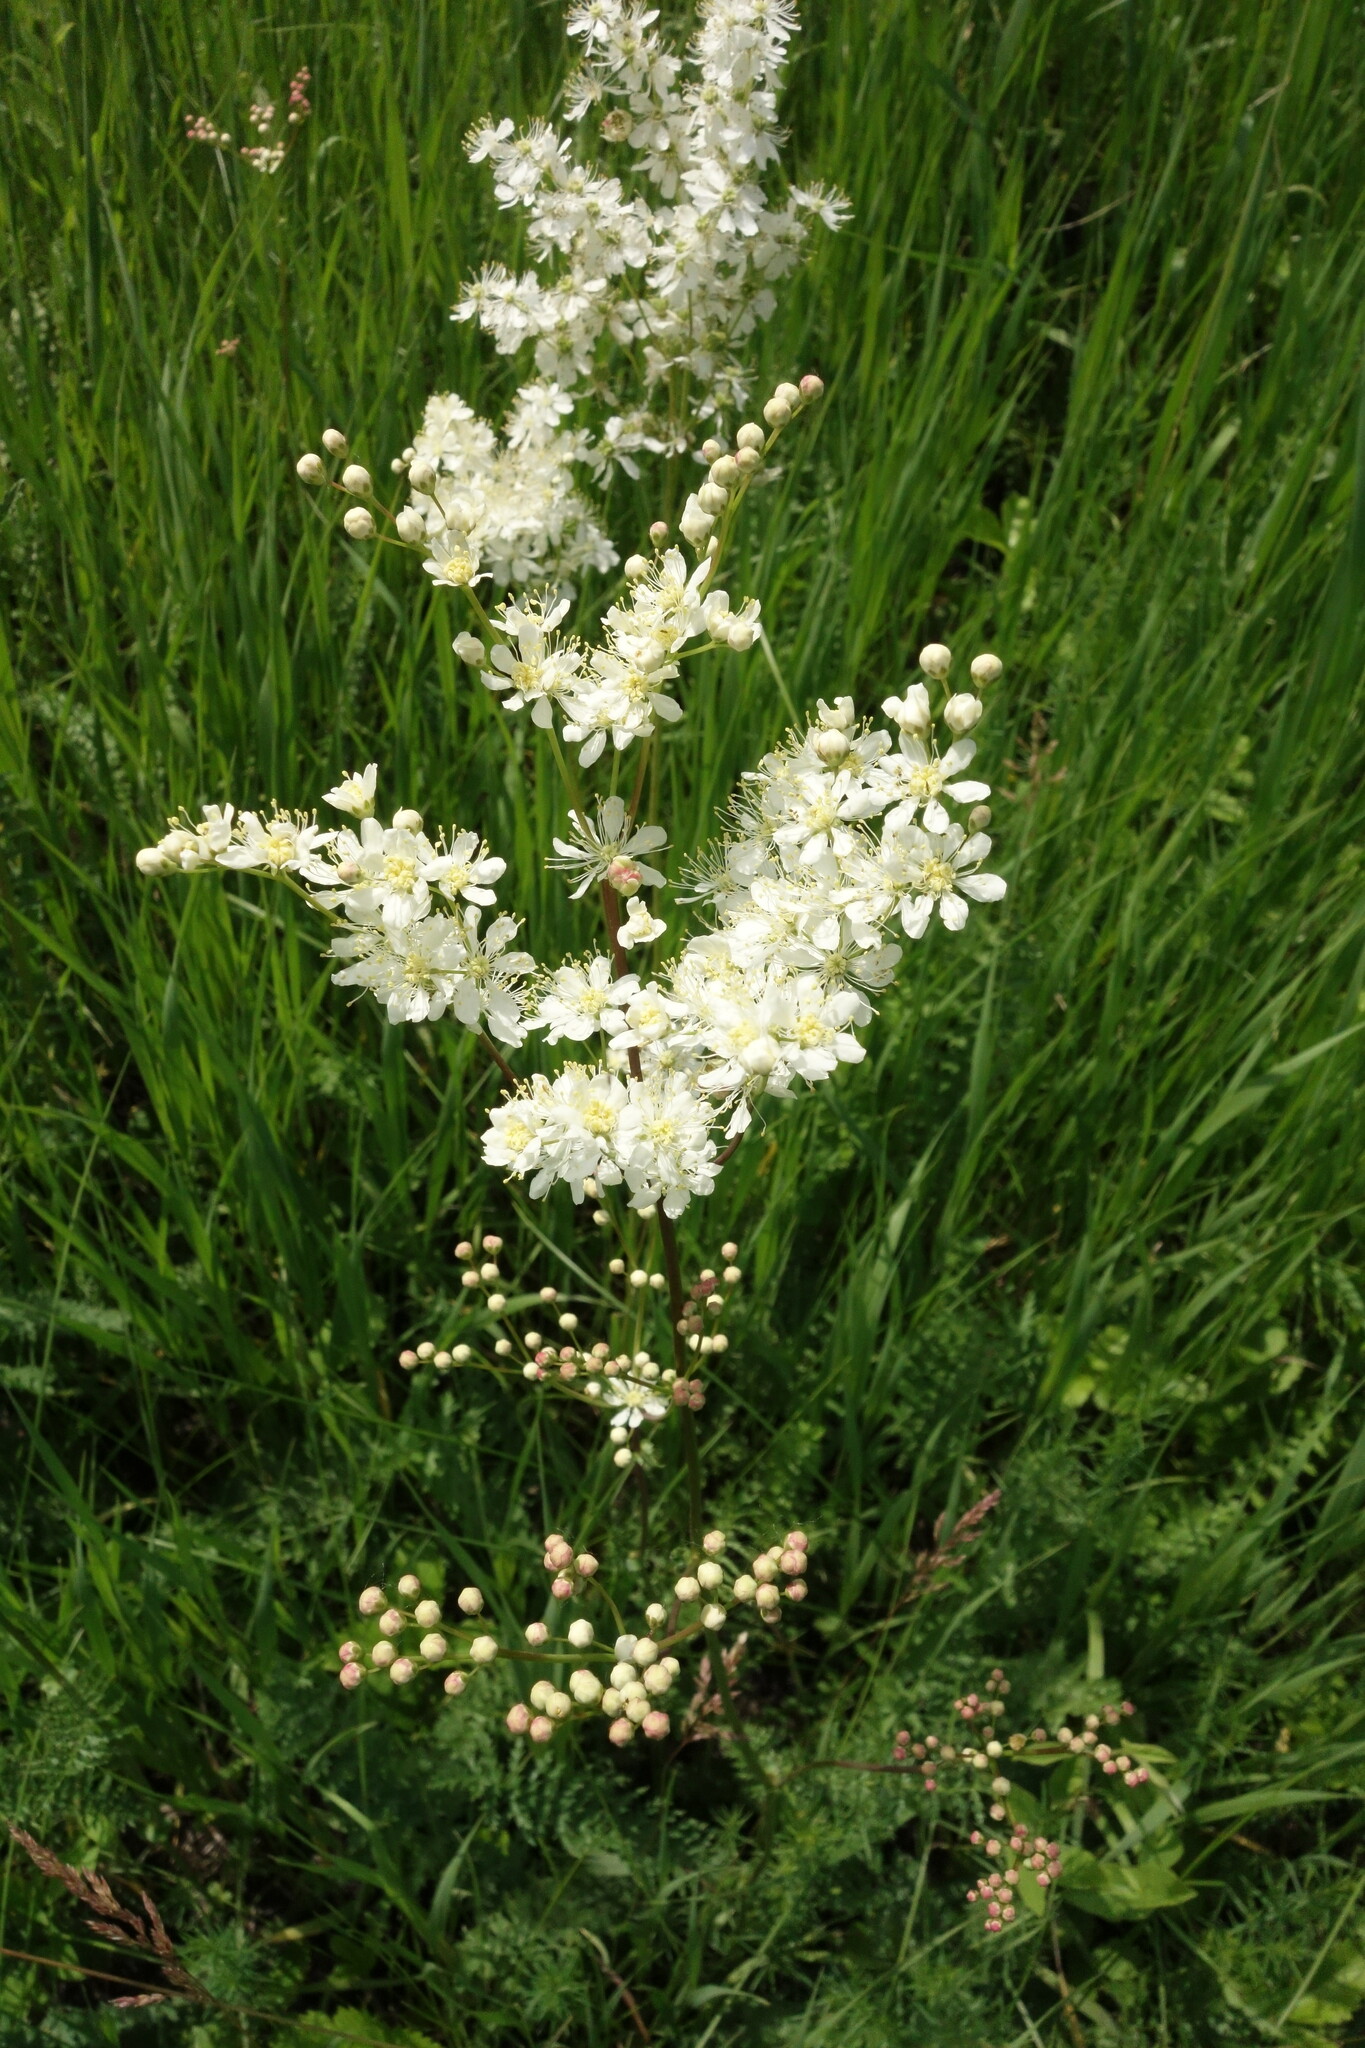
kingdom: Plantae
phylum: Tracheophyta
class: Magnoliopsida
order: Rosales
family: Rosaceae
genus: Filipendula
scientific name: Filipendula vulgaris
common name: Dropwort
